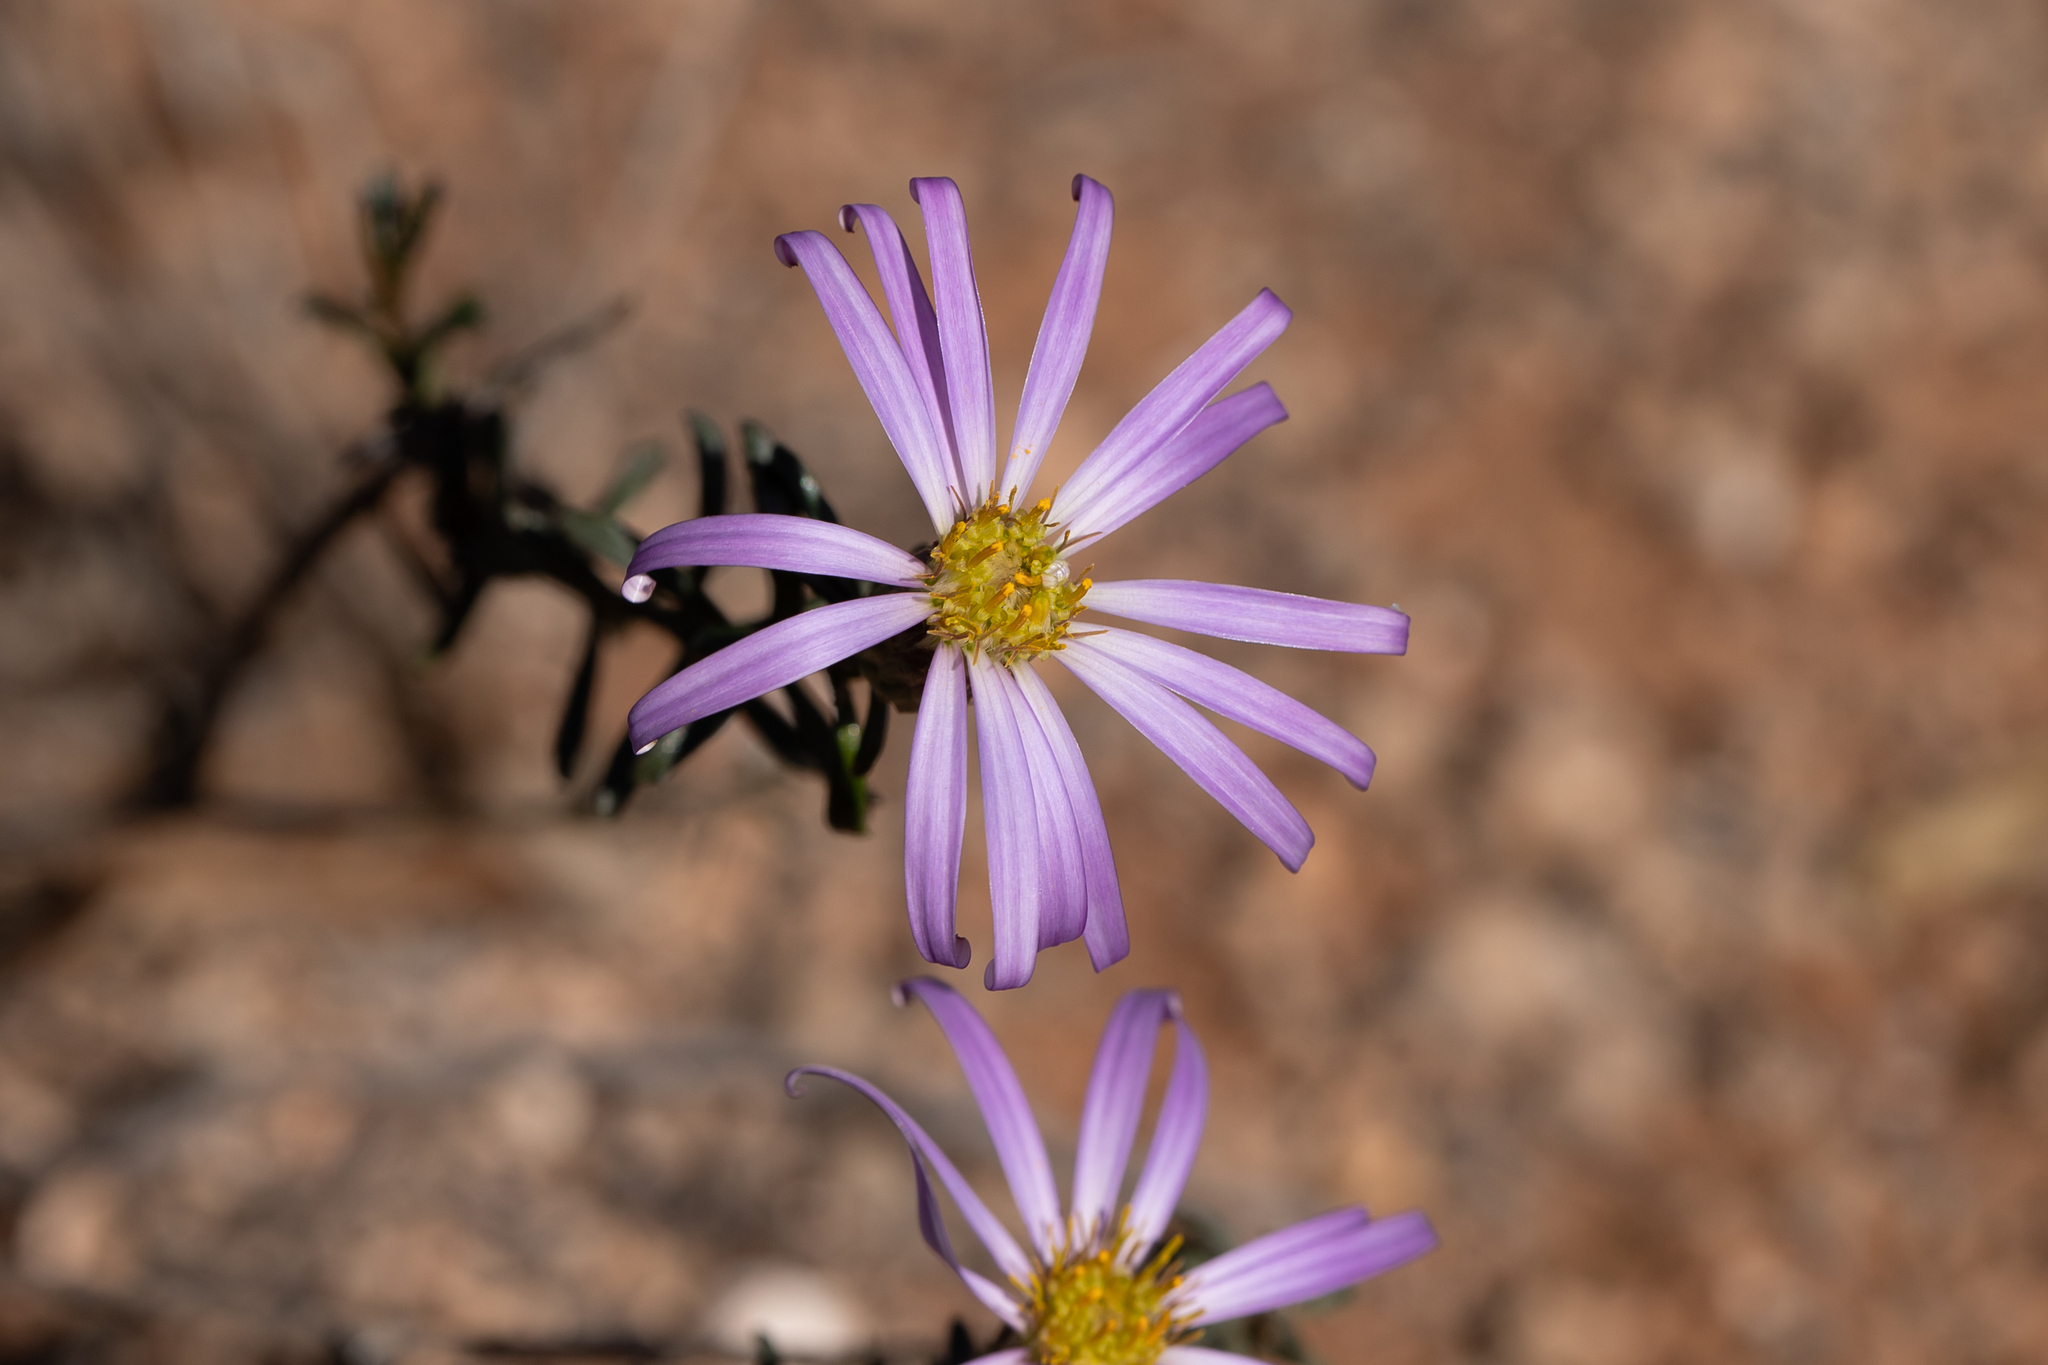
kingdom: Plantae
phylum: Tracheophyta
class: Magnoliopsida
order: Asterales
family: Asteraceae
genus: Walsholaria
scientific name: Walsholaria magniflora
